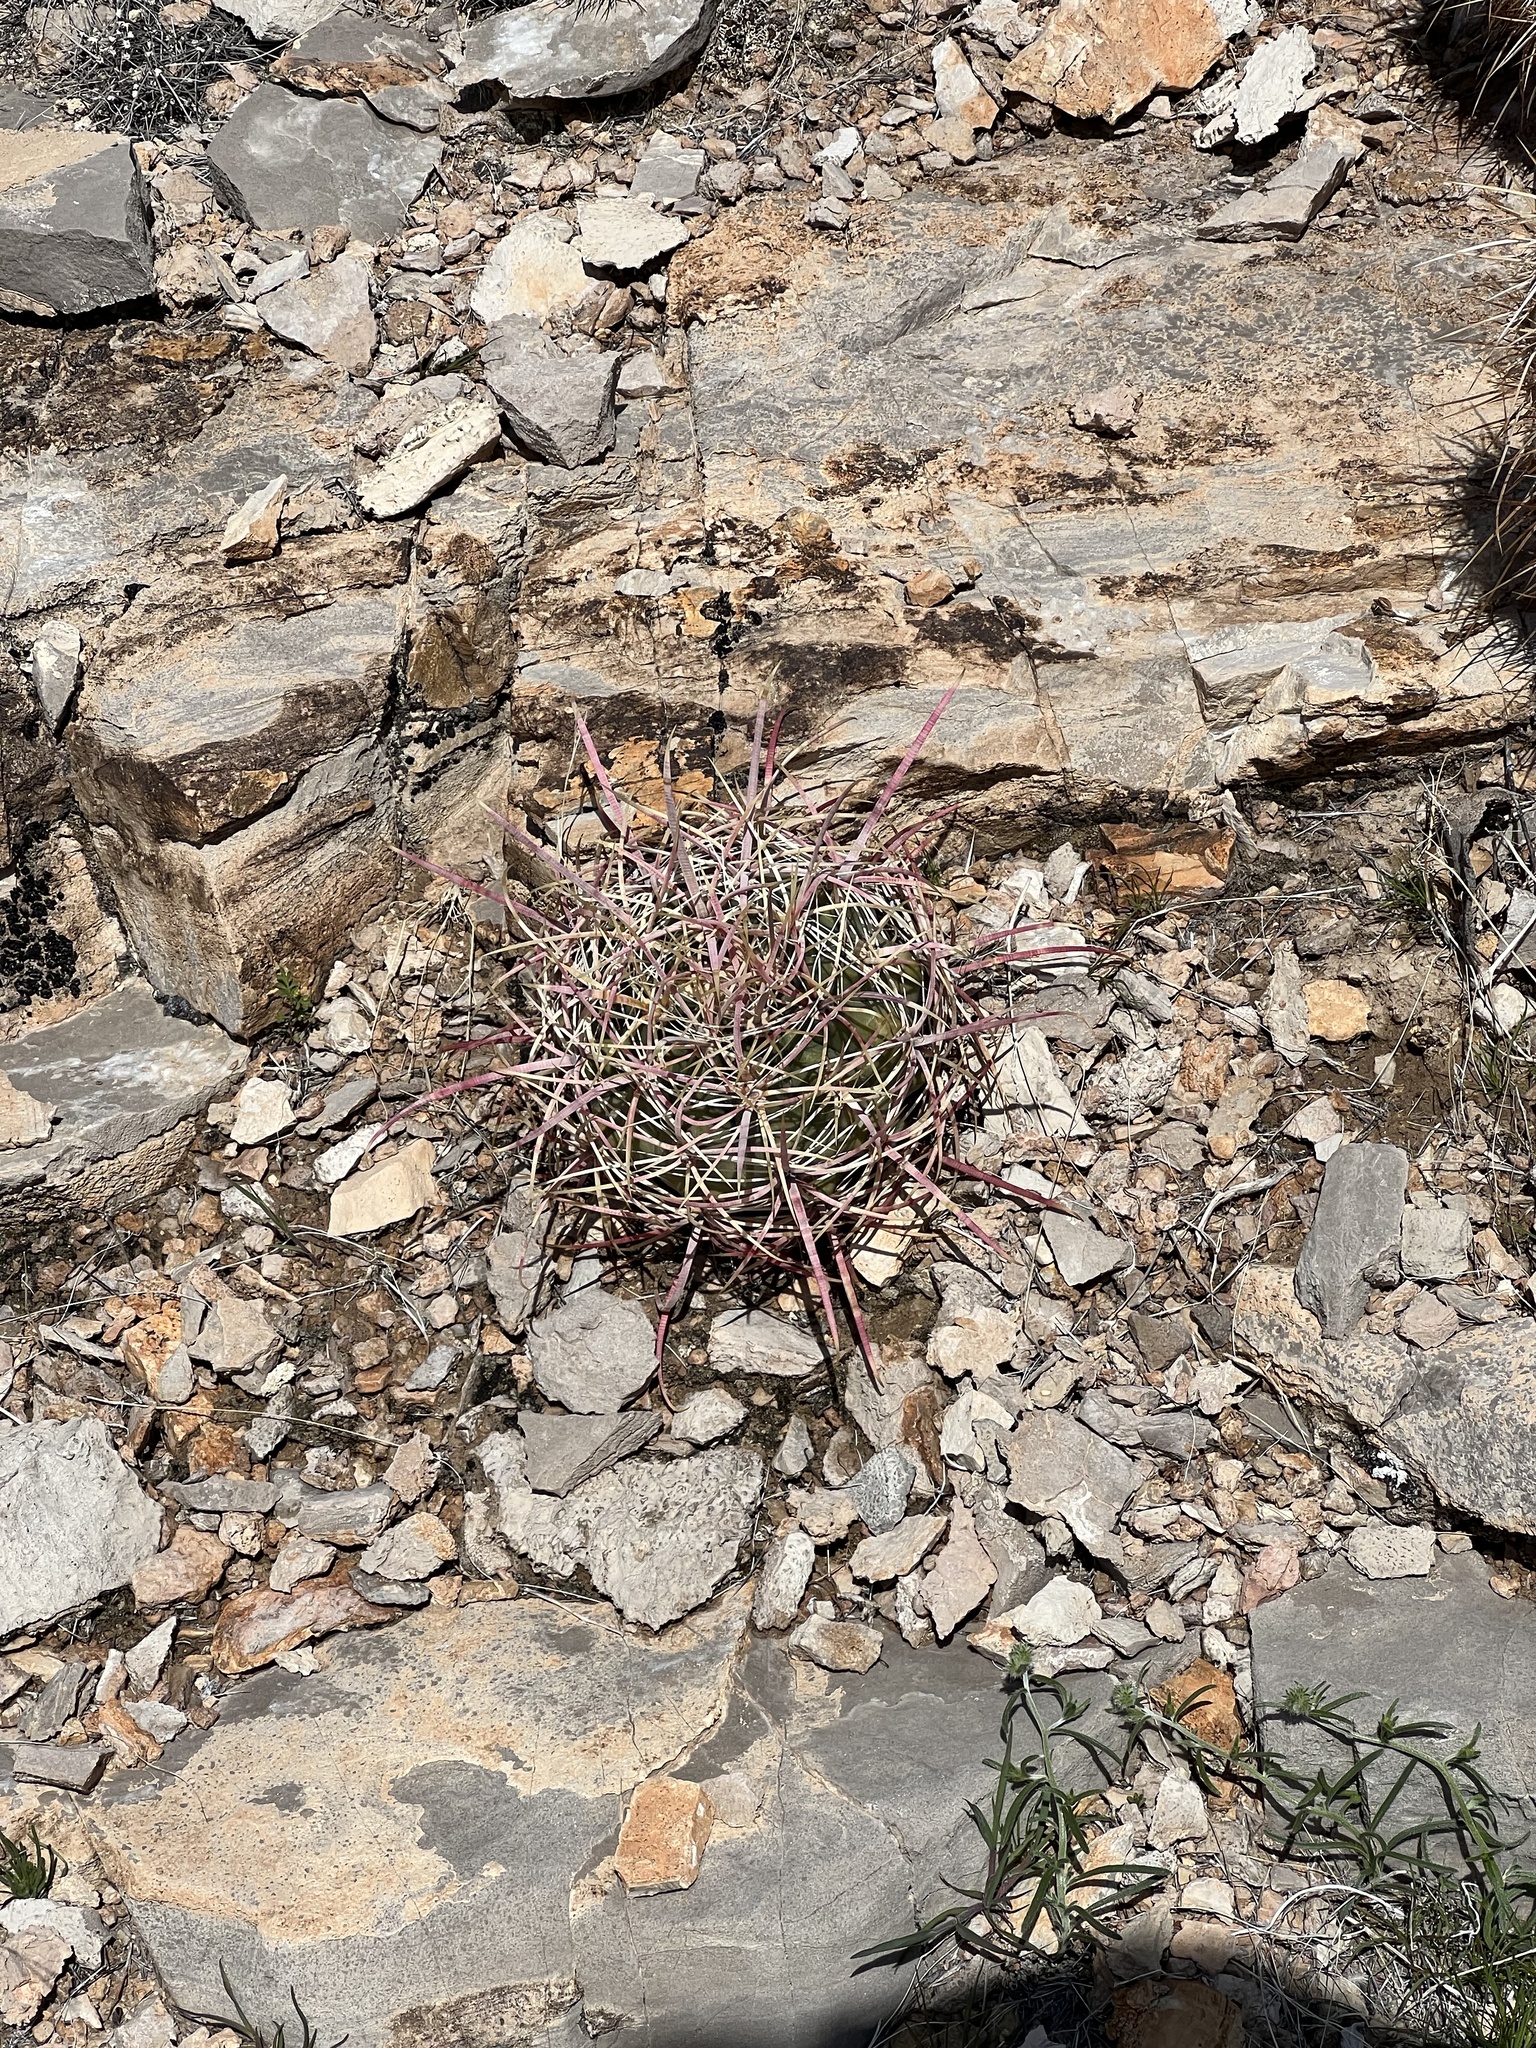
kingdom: Plantae
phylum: Tracheophyta
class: Magnoliopsida
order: Caryophyllales
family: Cactaceae
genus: Ferocactus
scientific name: Ferocactus cylindraceus
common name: California barrel cactus
